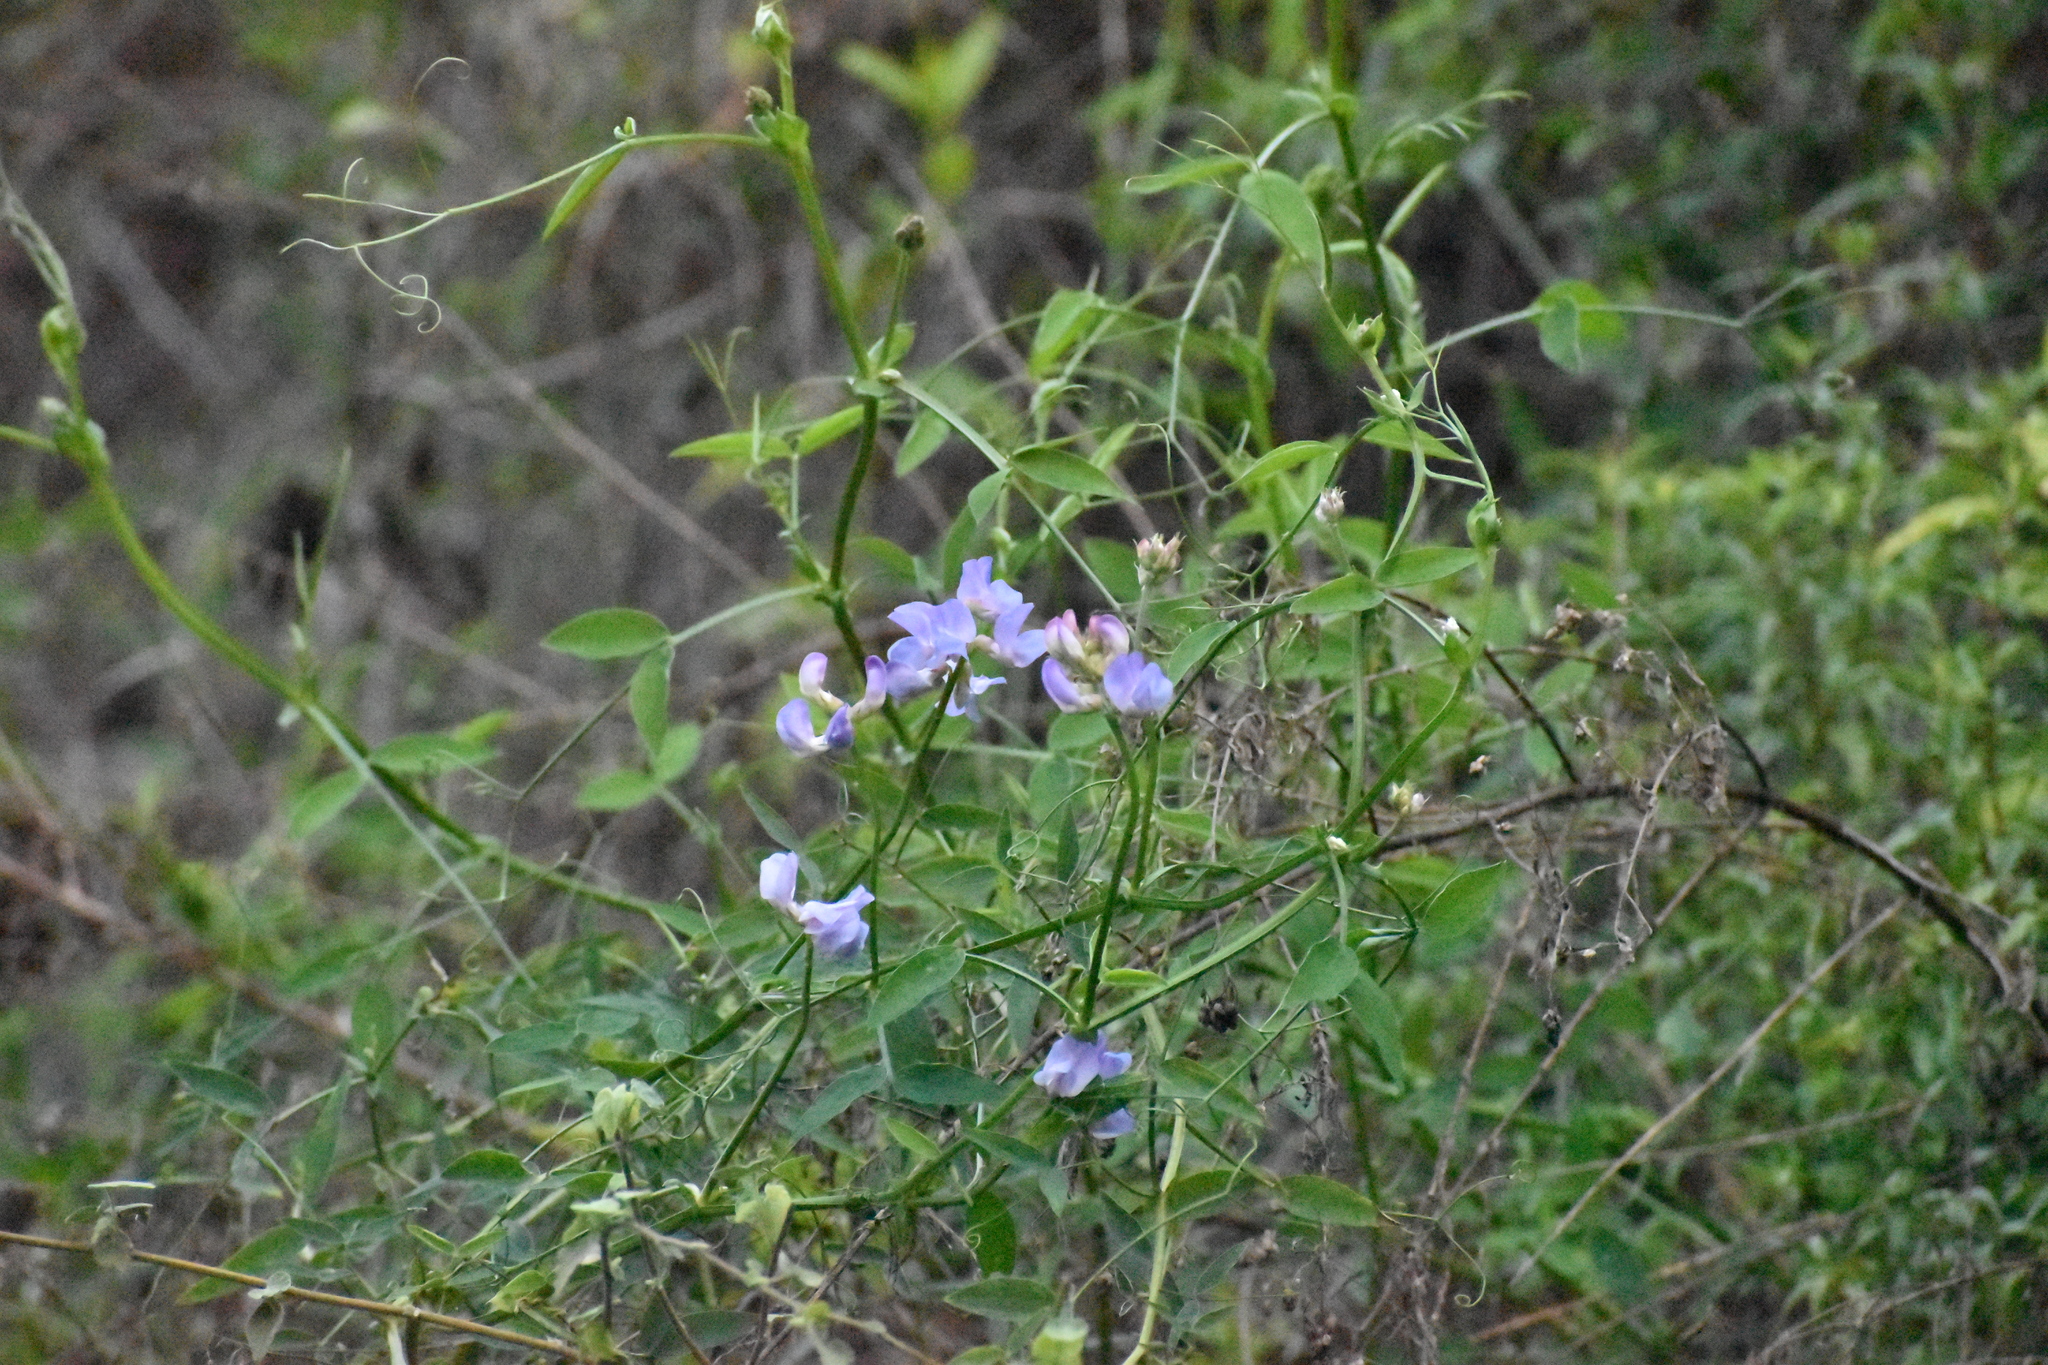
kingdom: Plantae
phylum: Tracheophyta
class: Magnoliopsida
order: Solanales
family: Solanaceae
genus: Solanum
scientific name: Solanum amygdalifolium
